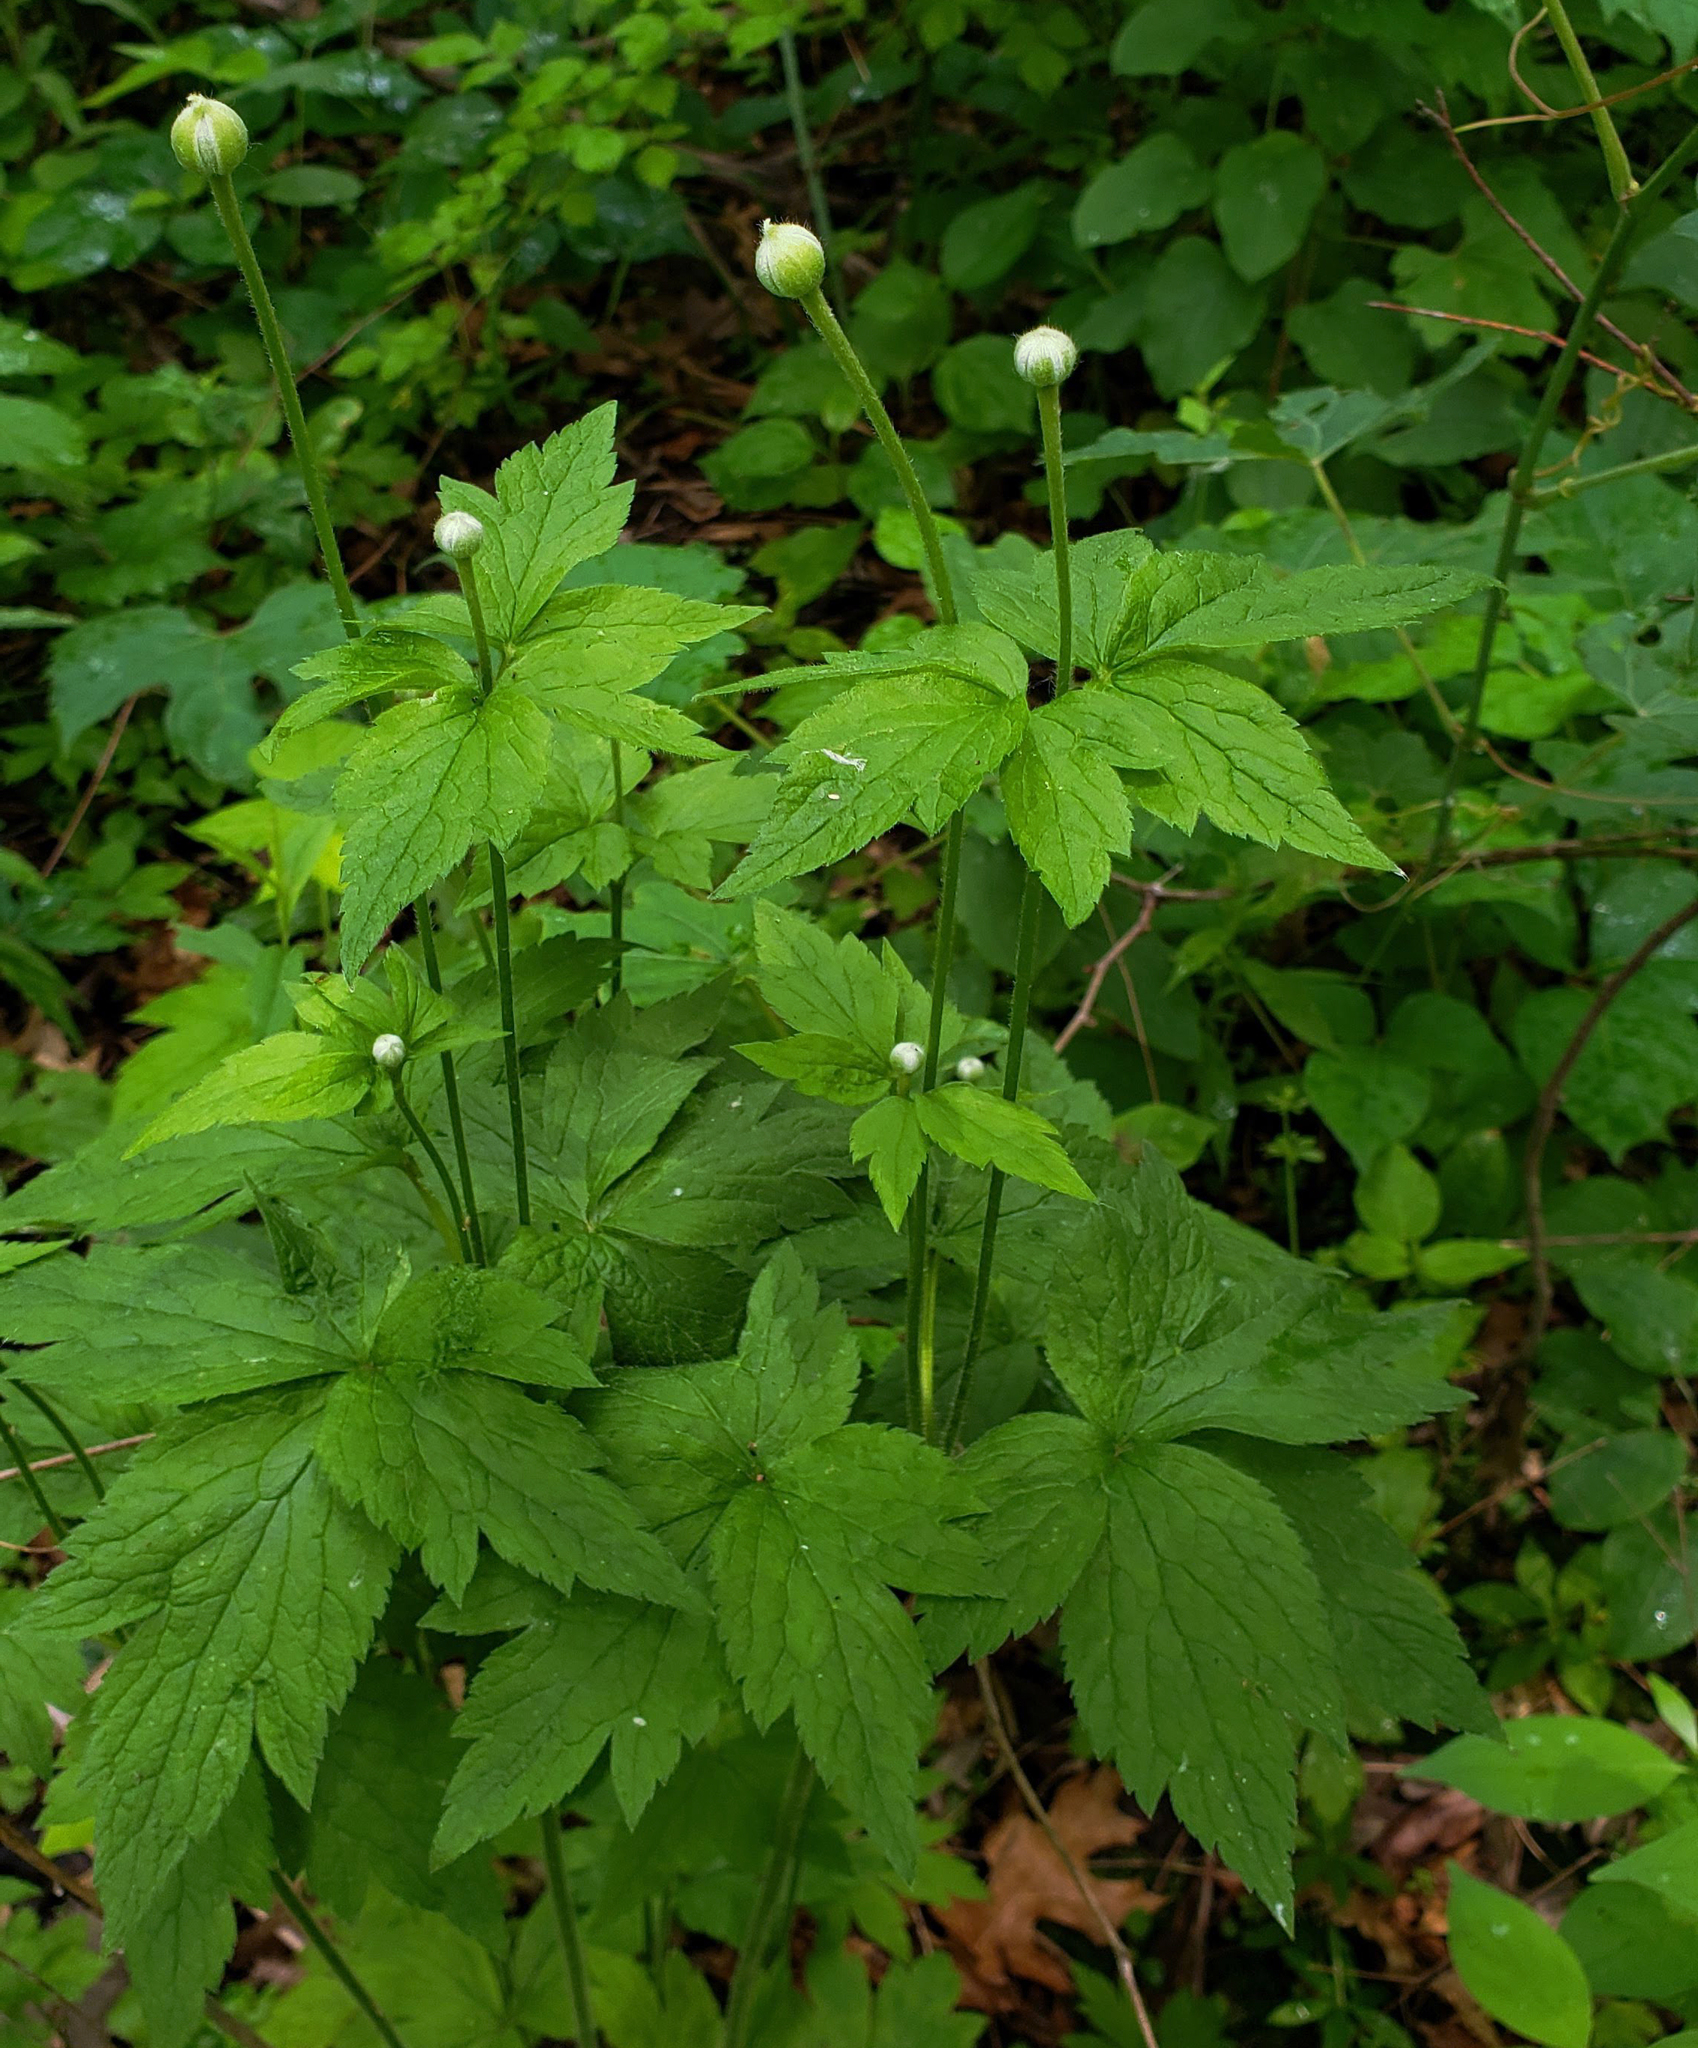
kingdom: Plantae
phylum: Tracheophyta
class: Magnoliopsida
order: Ranunculales
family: Ranunculaceae
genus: Anemone
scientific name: Anemone virginiana
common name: Tall anemone
